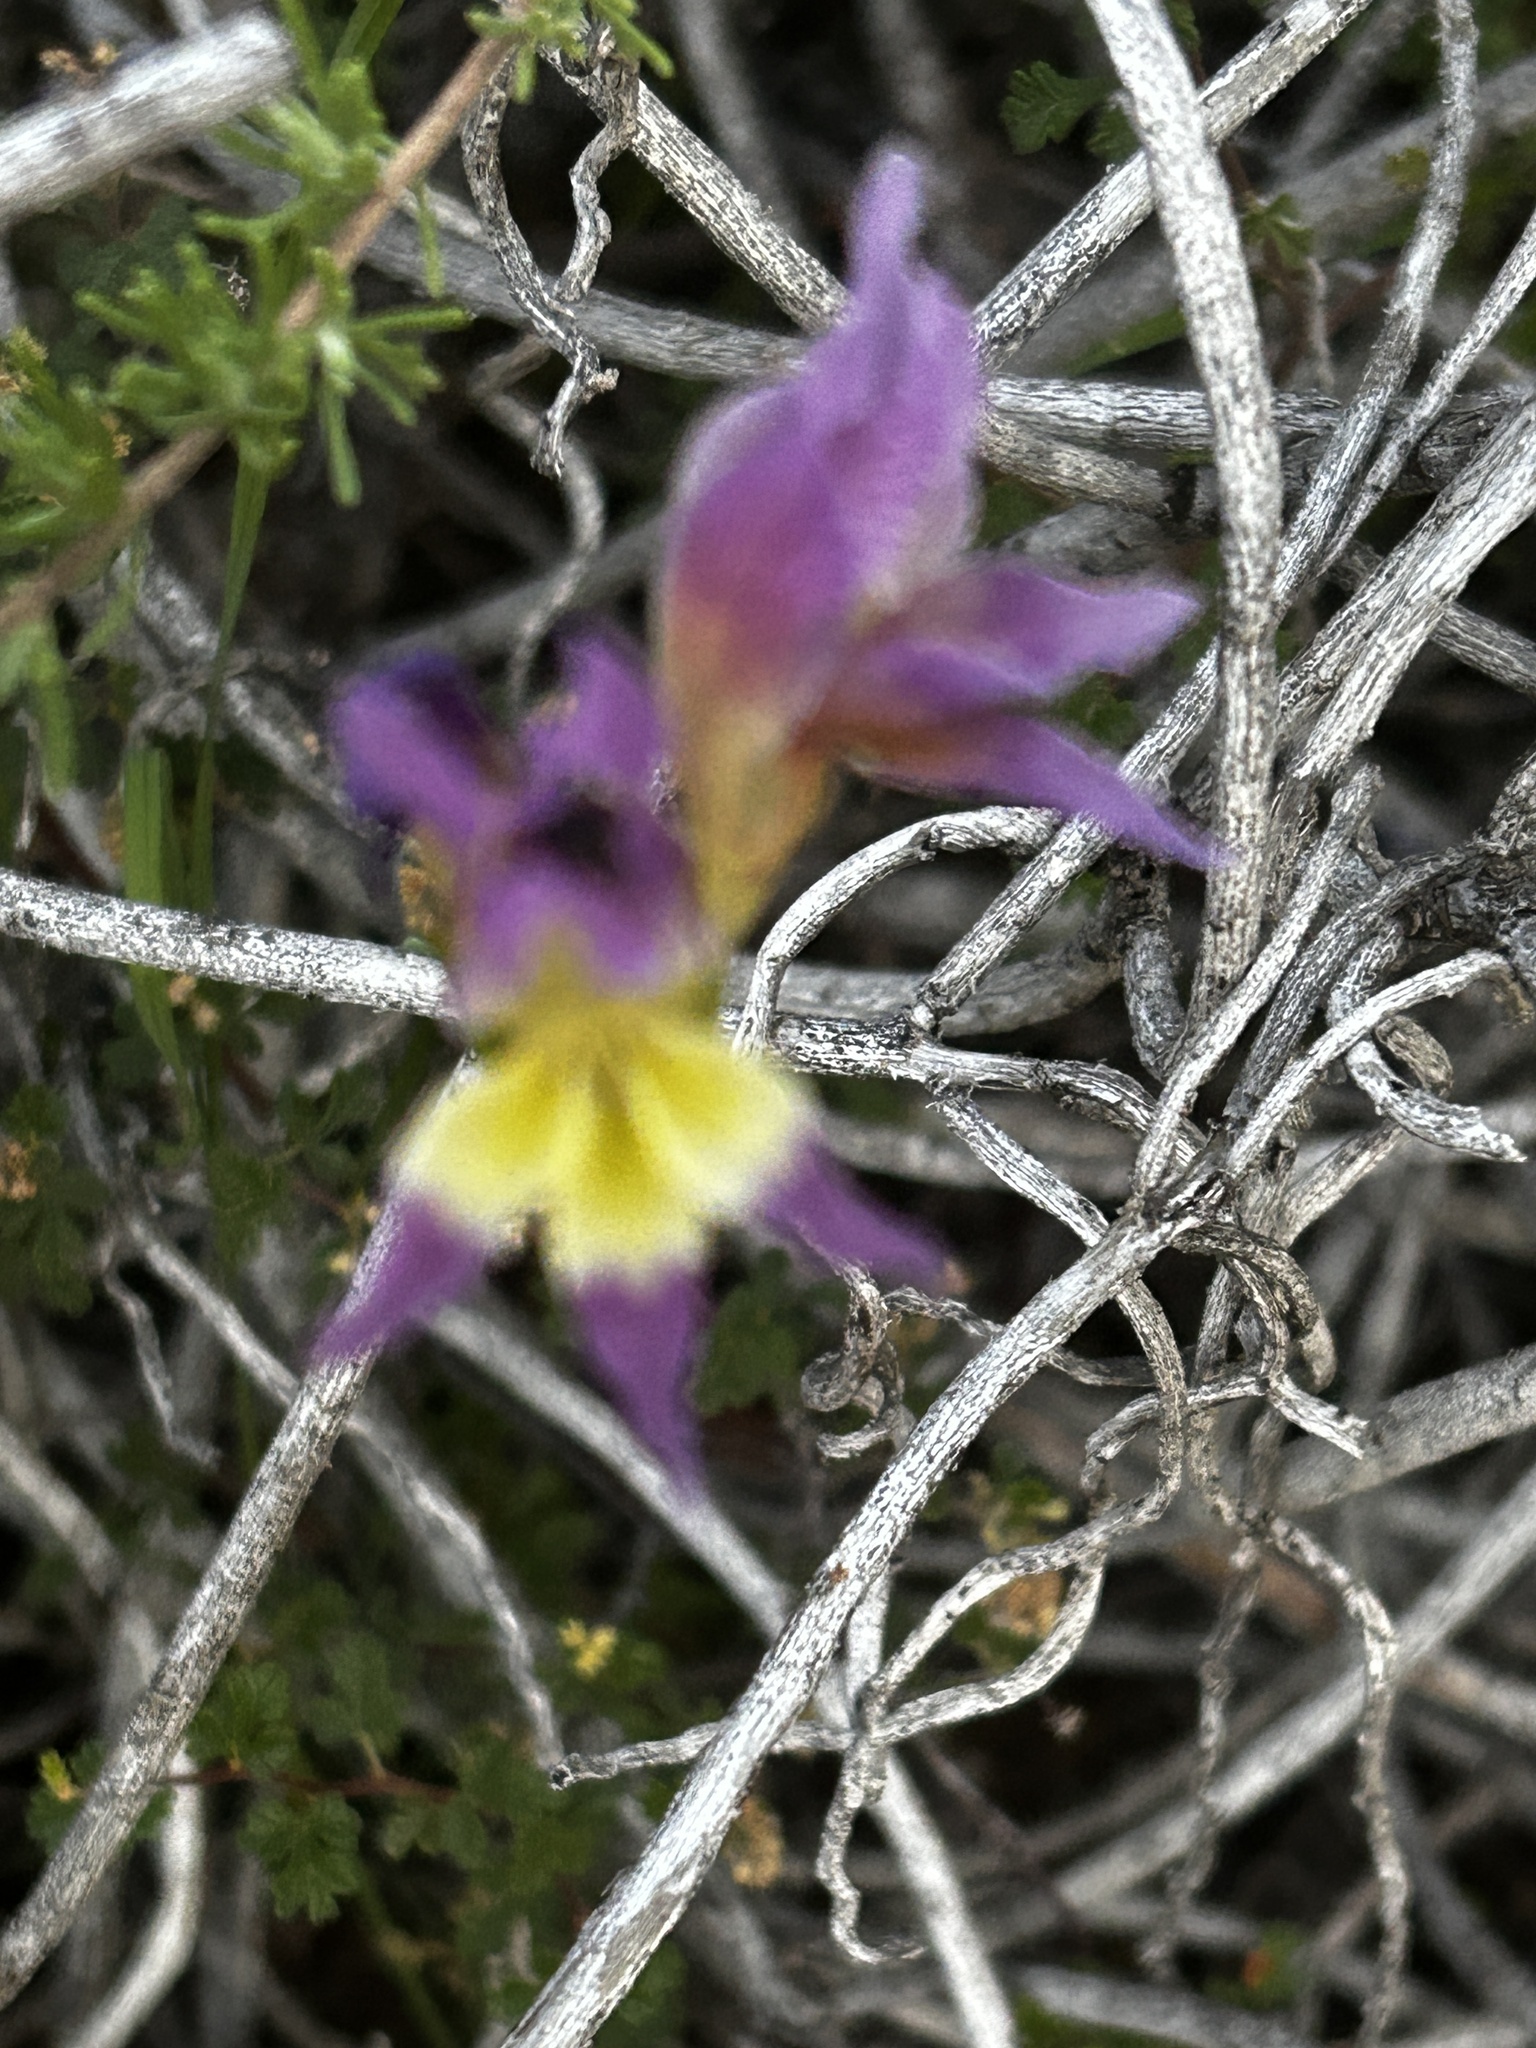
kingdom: Plantae
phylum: Tracheophyta
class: Liliopsida
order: Asparagales
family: Iridaceae
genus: Gladiolus
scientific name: Gladiolus venustus
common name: Purple kalkoentjie
